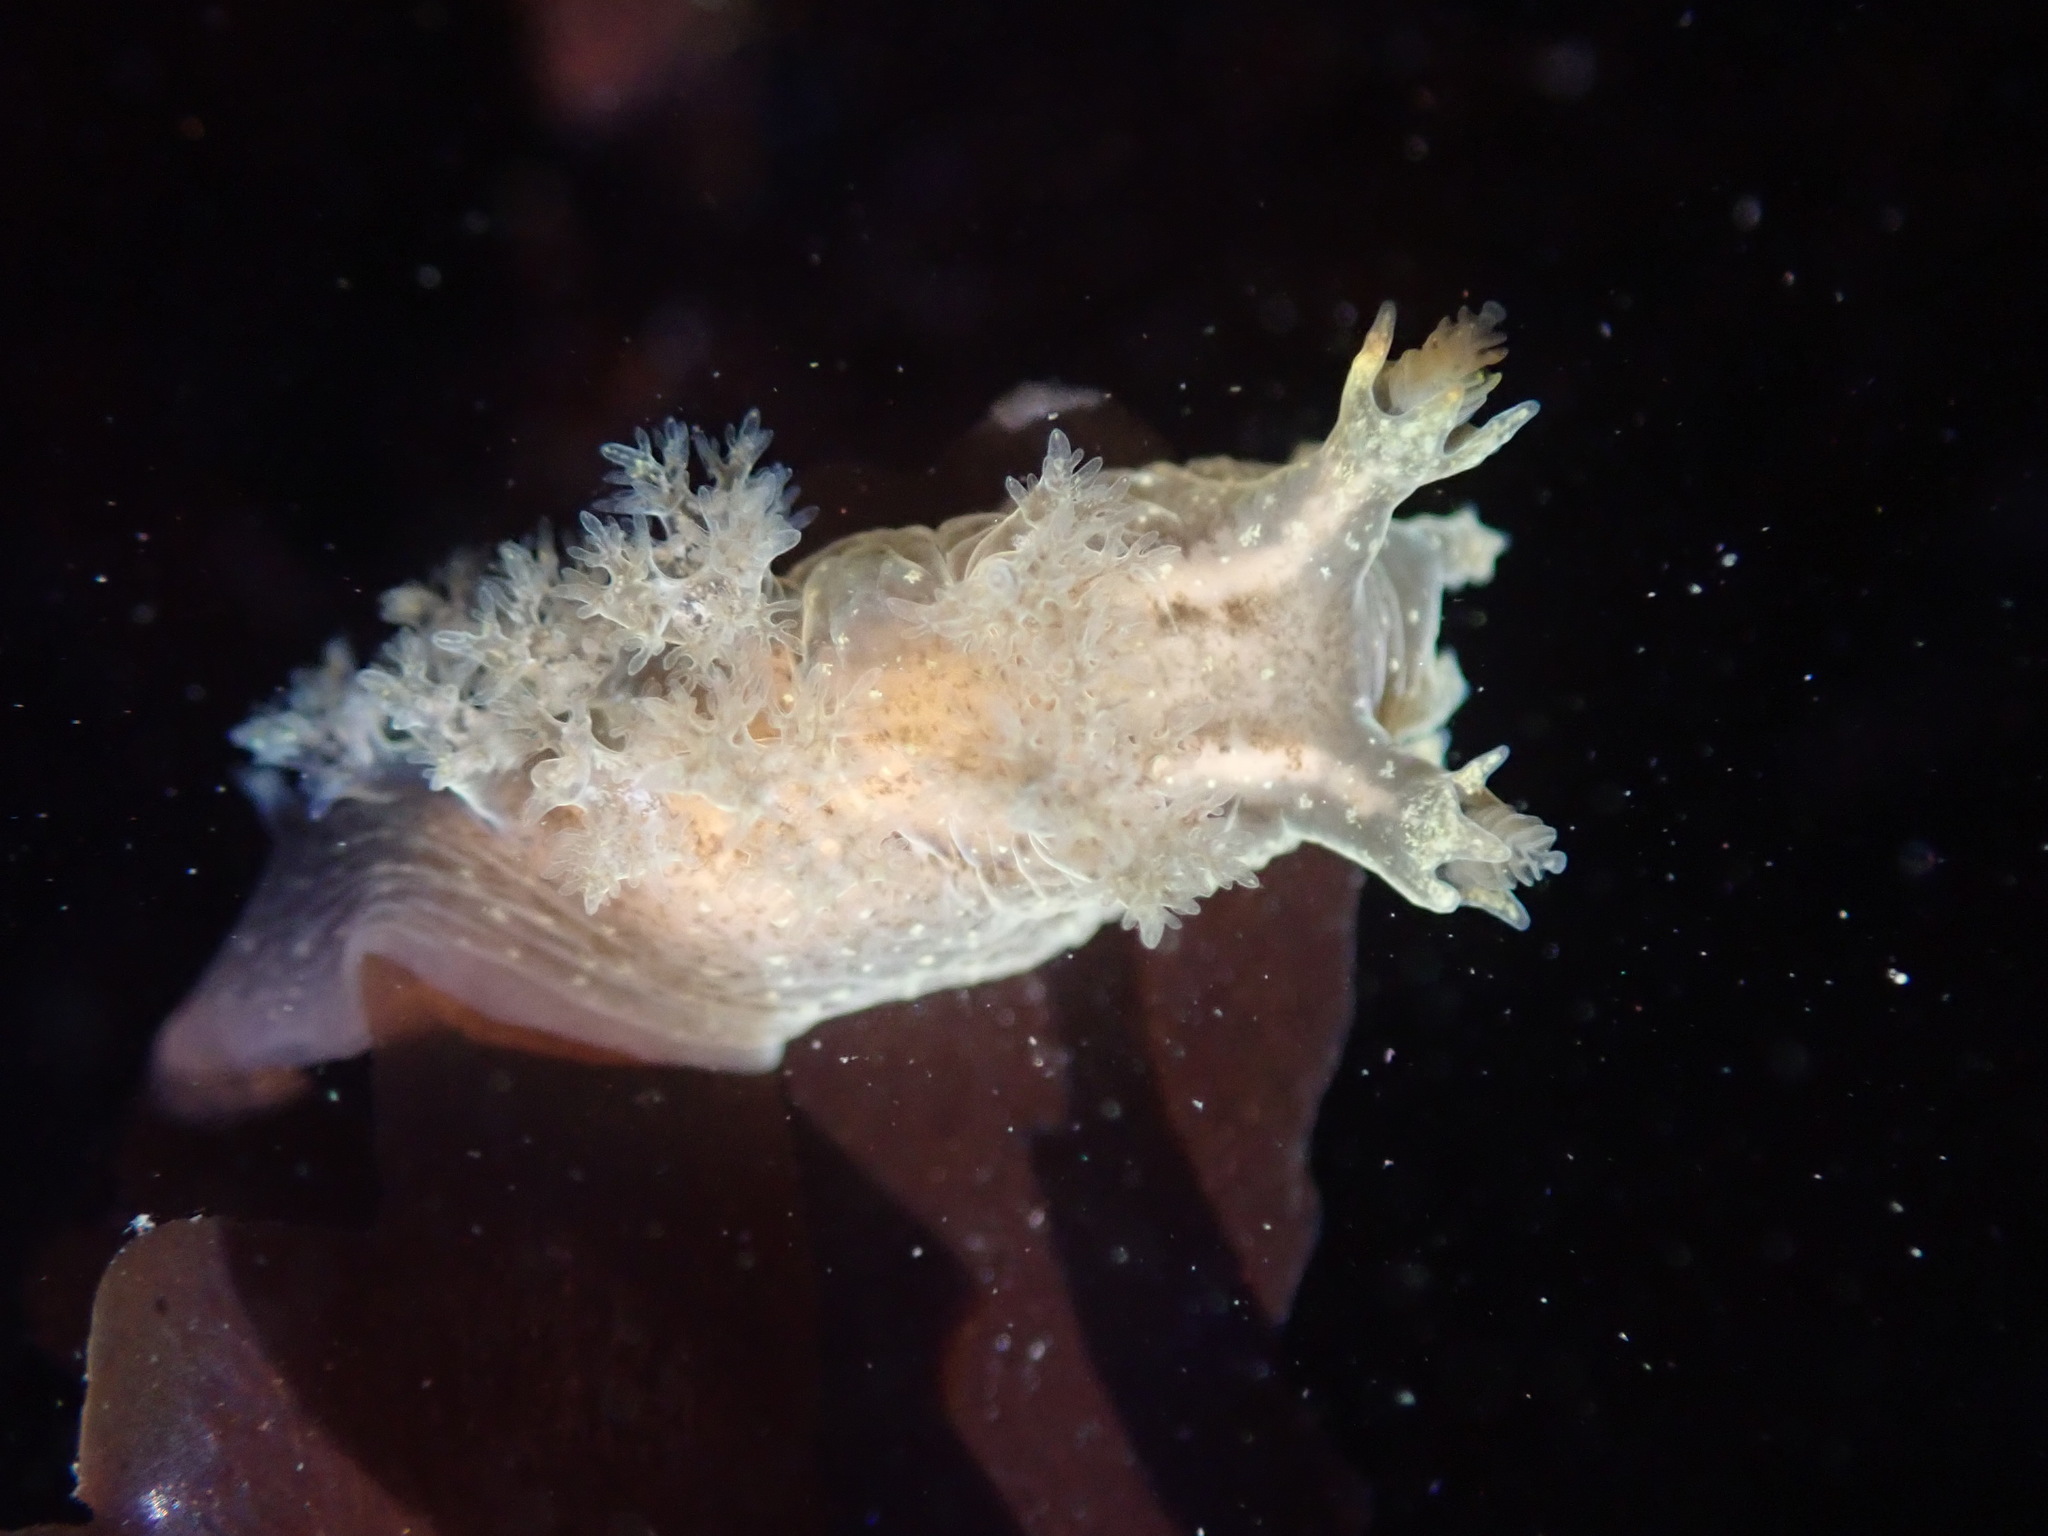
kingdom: Animalia
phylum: Mollusca
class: Gastropoda
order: Nudibranchia
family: Dendronotidae
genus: Dendronotus
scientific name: Dendronotus subramosus
